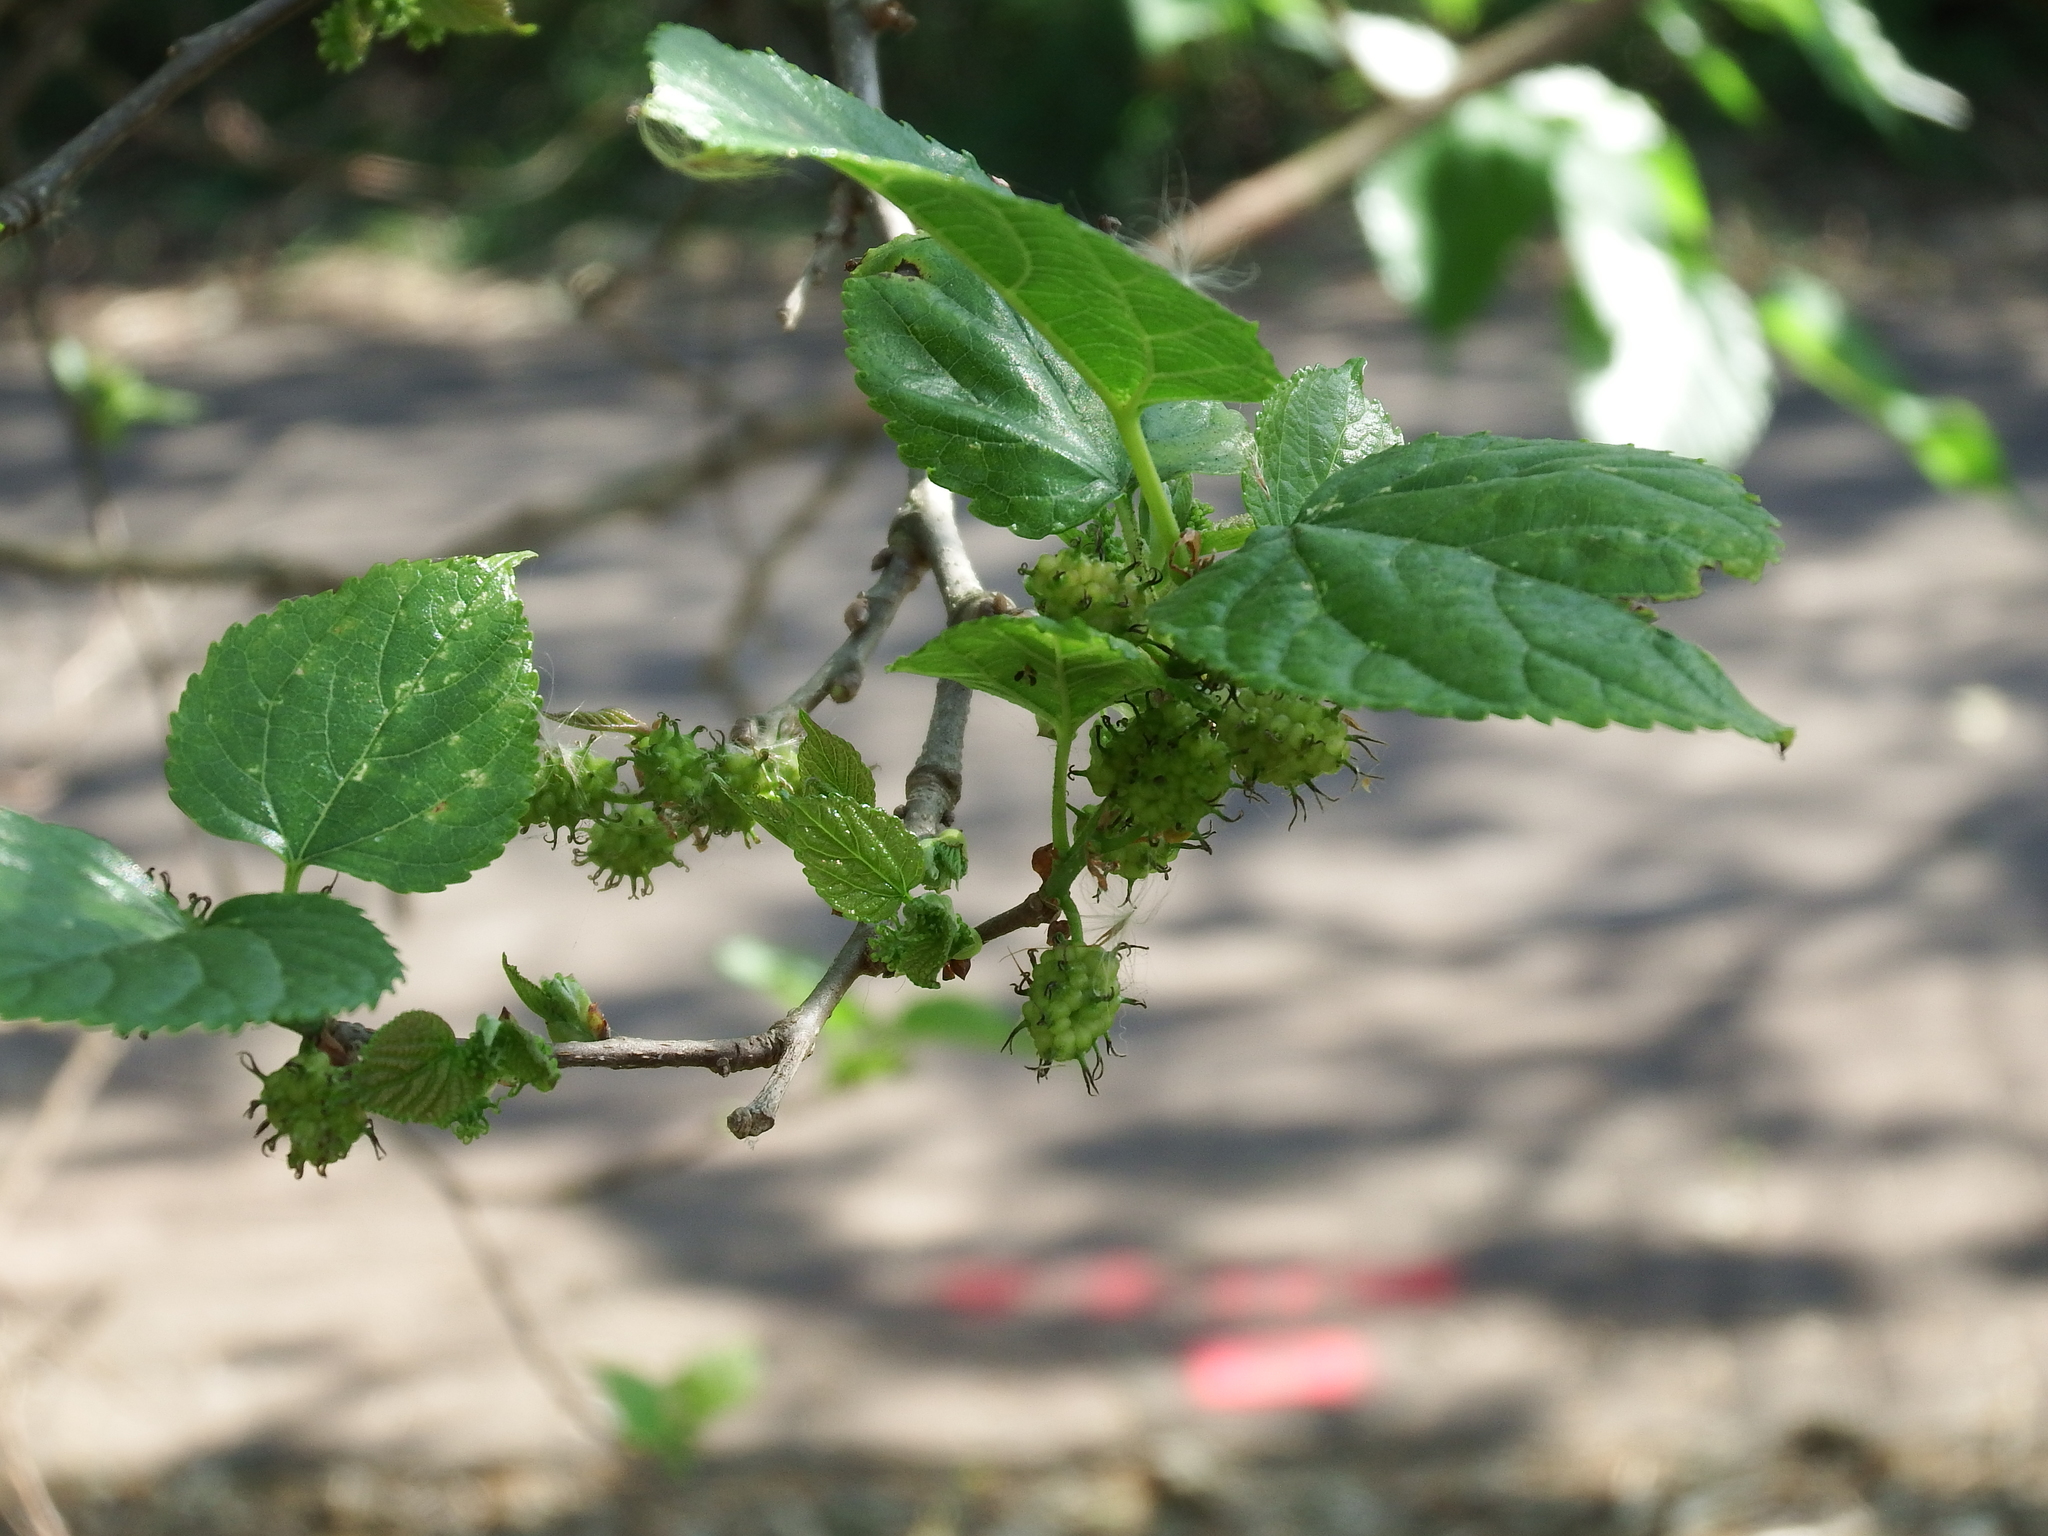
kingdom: Plantae
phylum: Tracheophyta
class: Magnoliopsida
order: Rosales
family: Moraceae
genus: Morus
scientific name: Morus indica
